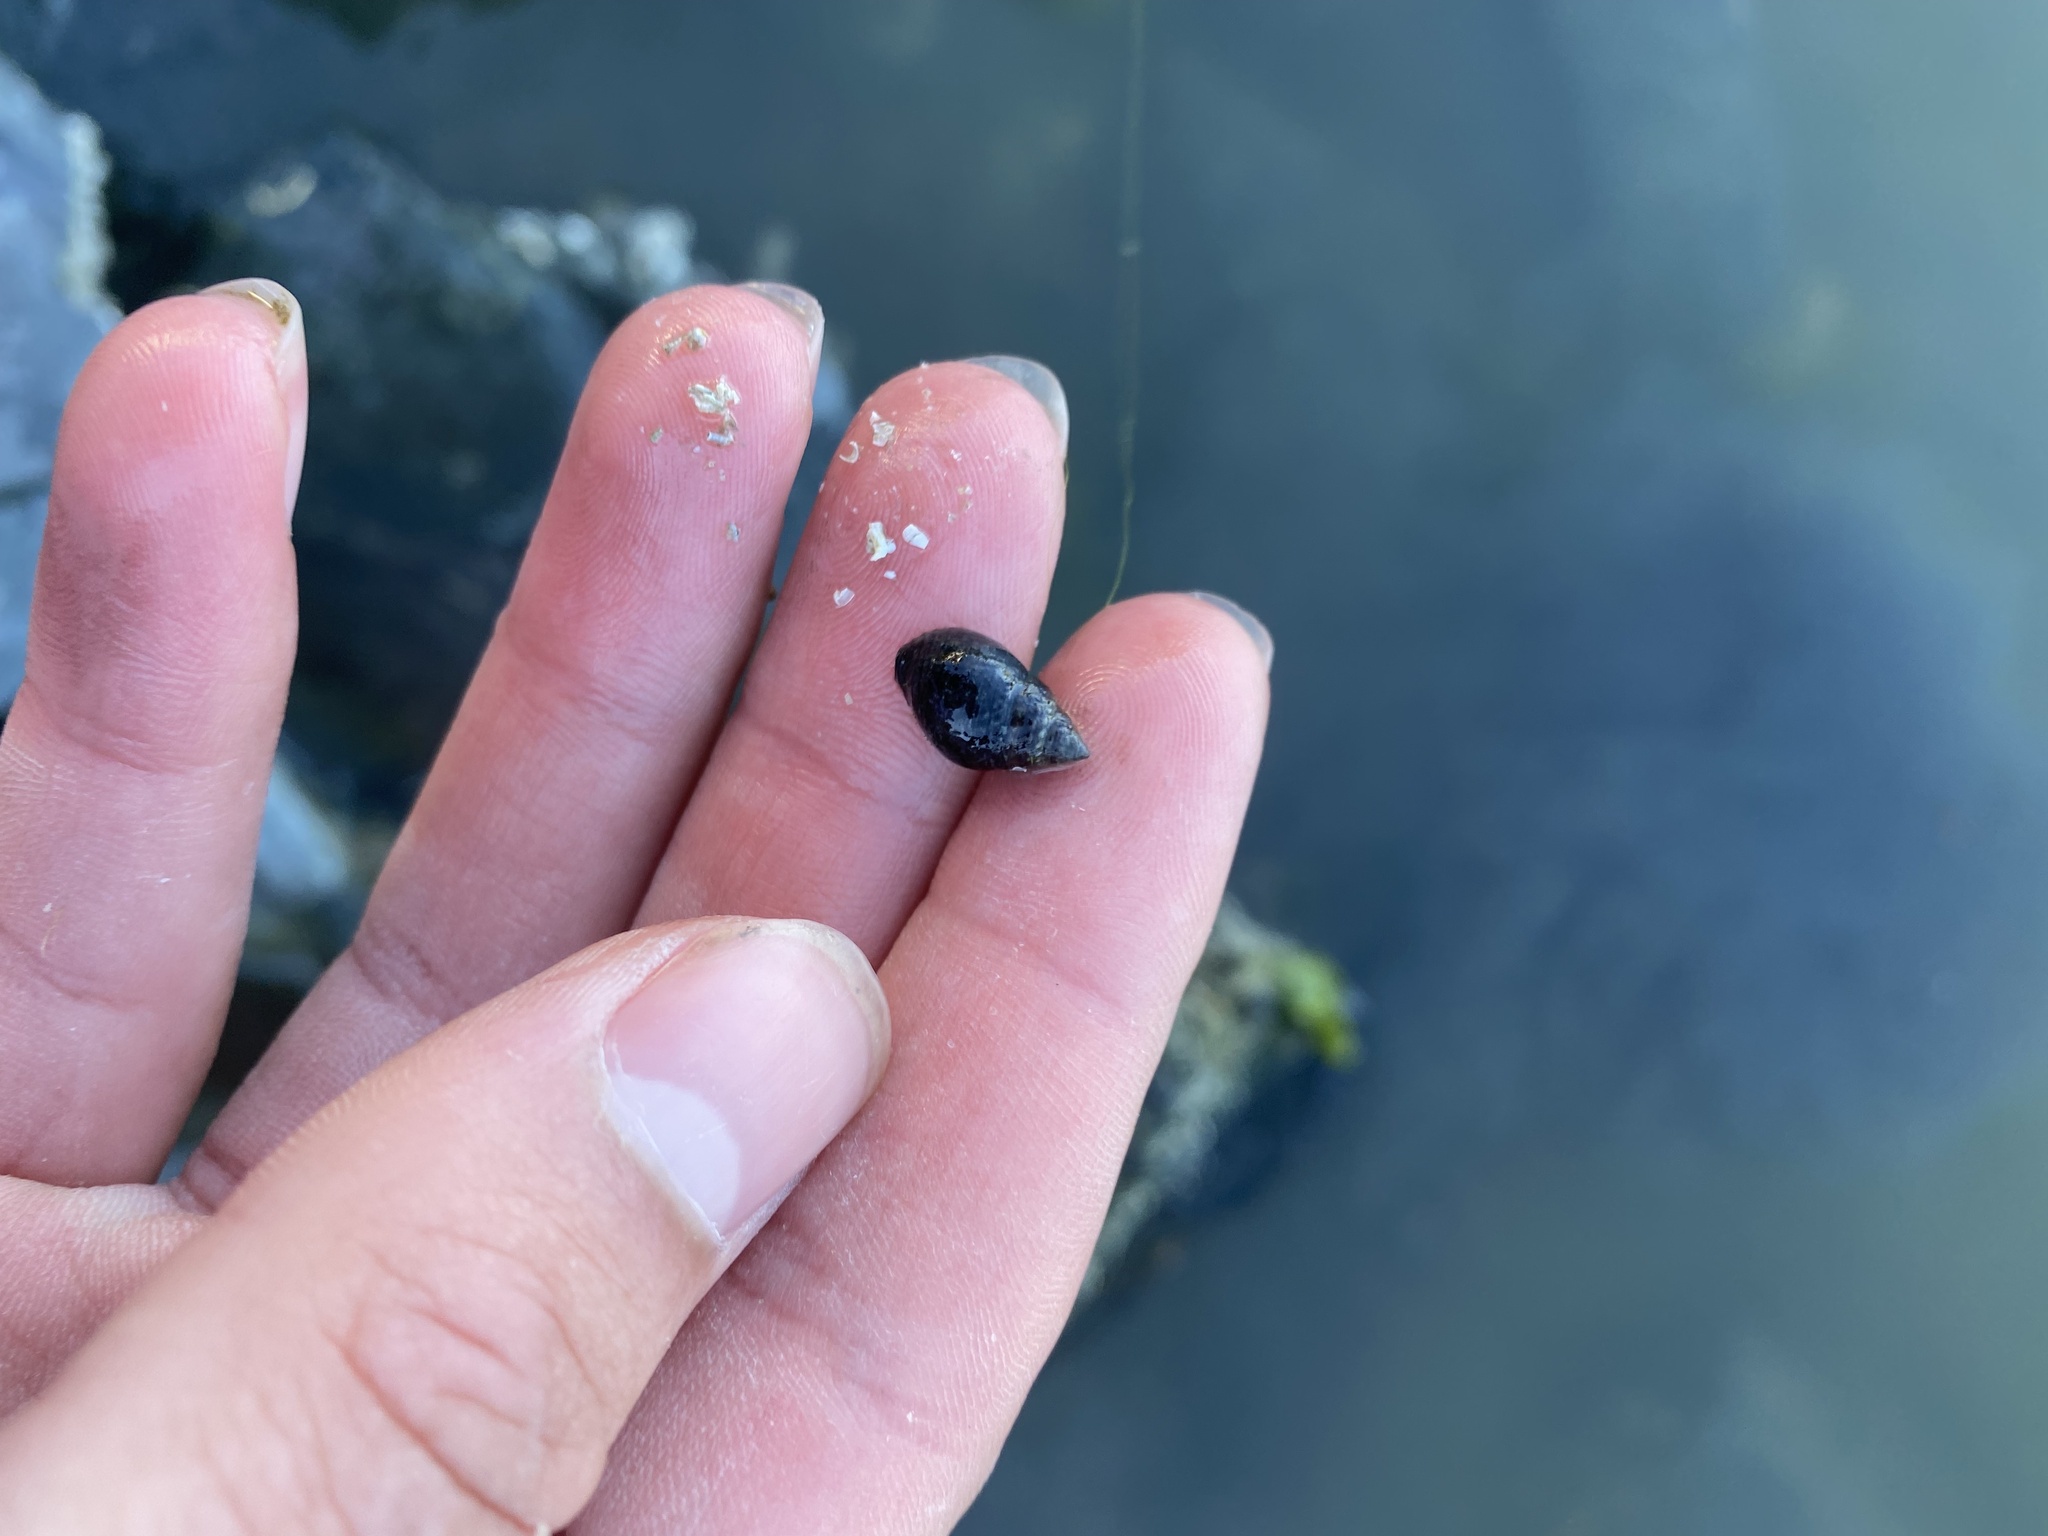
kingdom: Animalia
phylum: Mollusca
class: Gastropoda
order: Neogastropoda
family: Nassariidae
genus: Ilyanassa
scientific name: Ilyanassa obsoleta
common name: Eastern mudsnail
